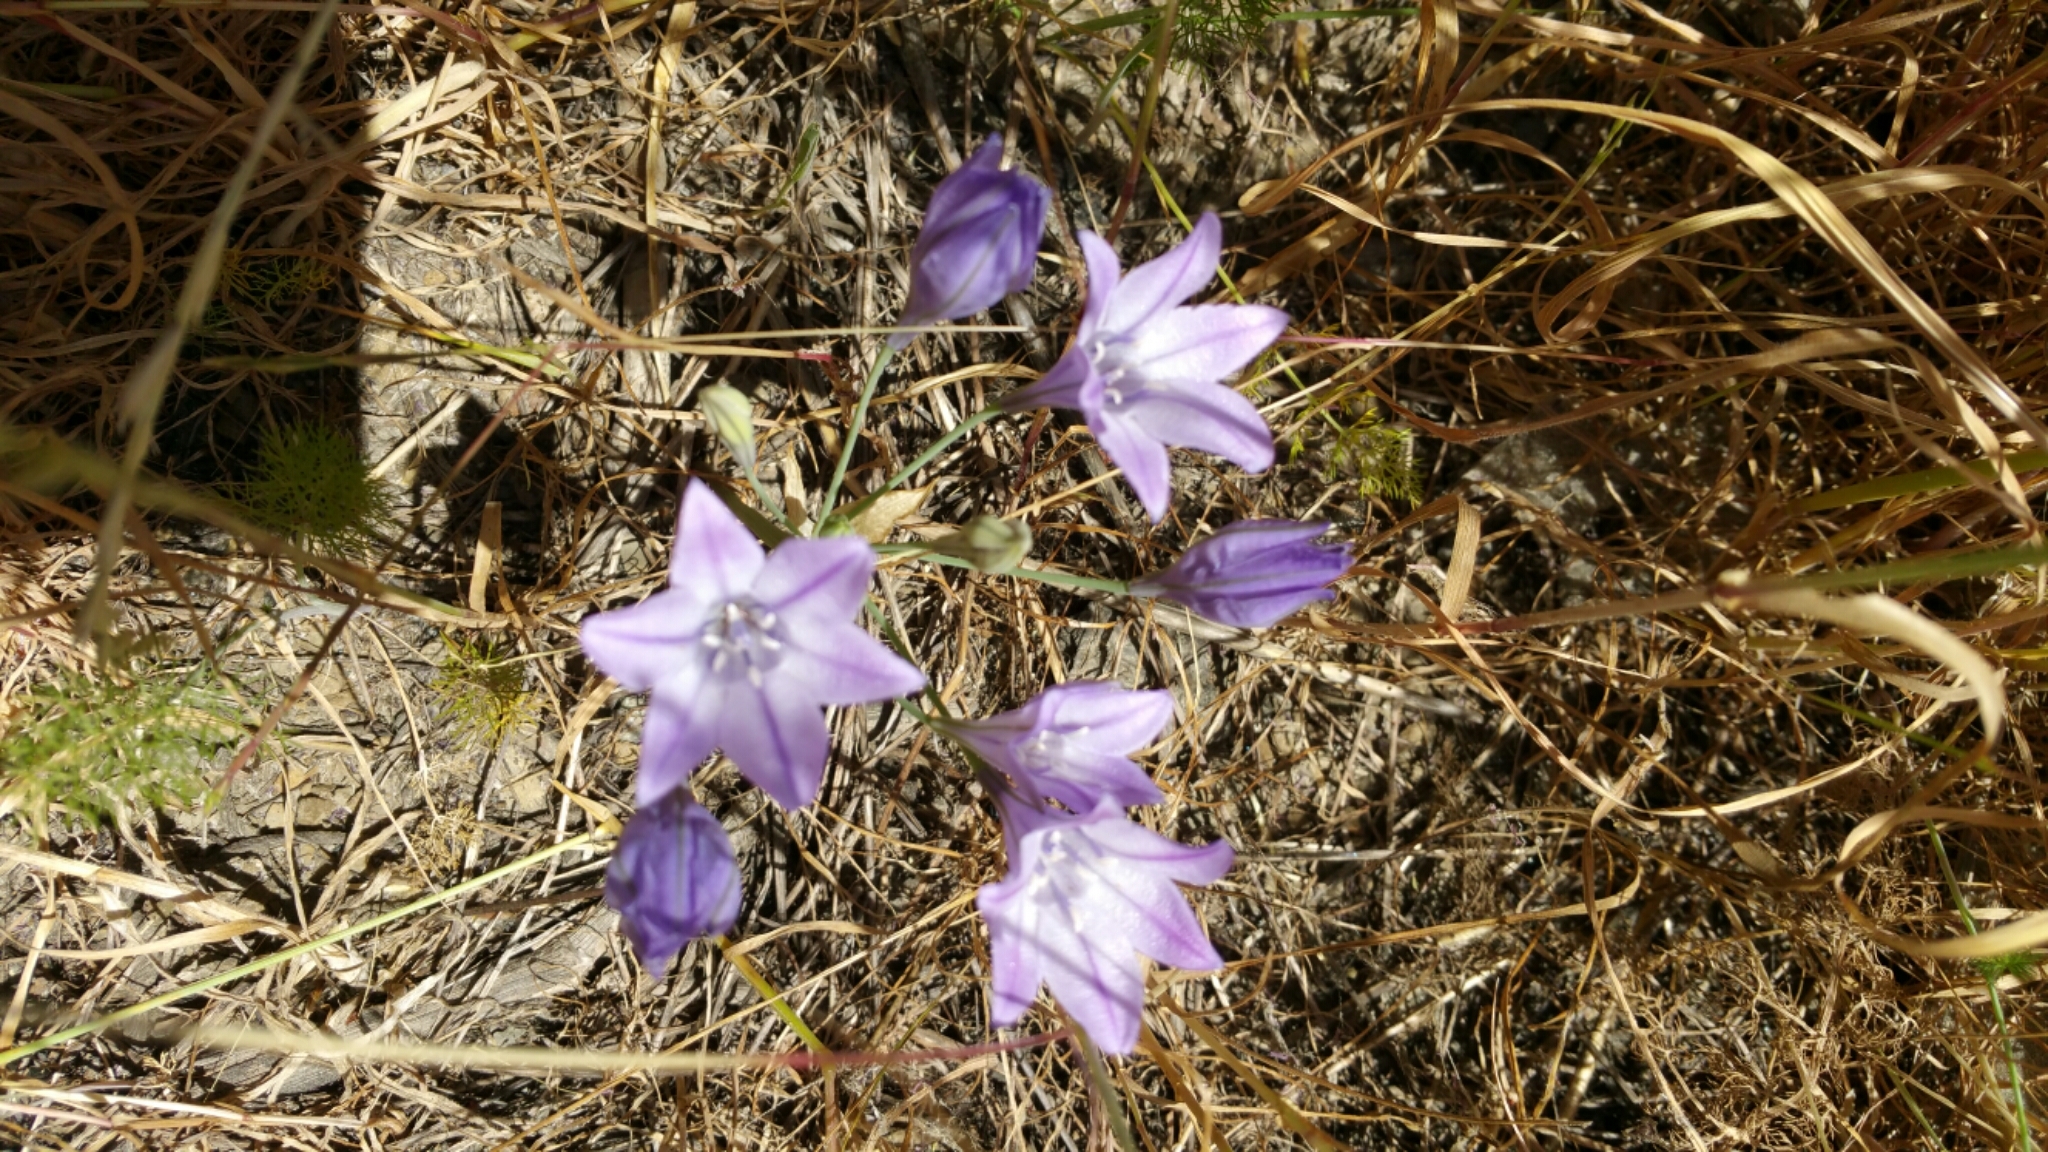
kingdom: Plantae
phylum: Tracheophyta
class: Liliopsida
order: Asparagales
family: Asparagaceae
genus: Triteleia
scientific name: Triteleia laxa
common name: Triplet-lily
